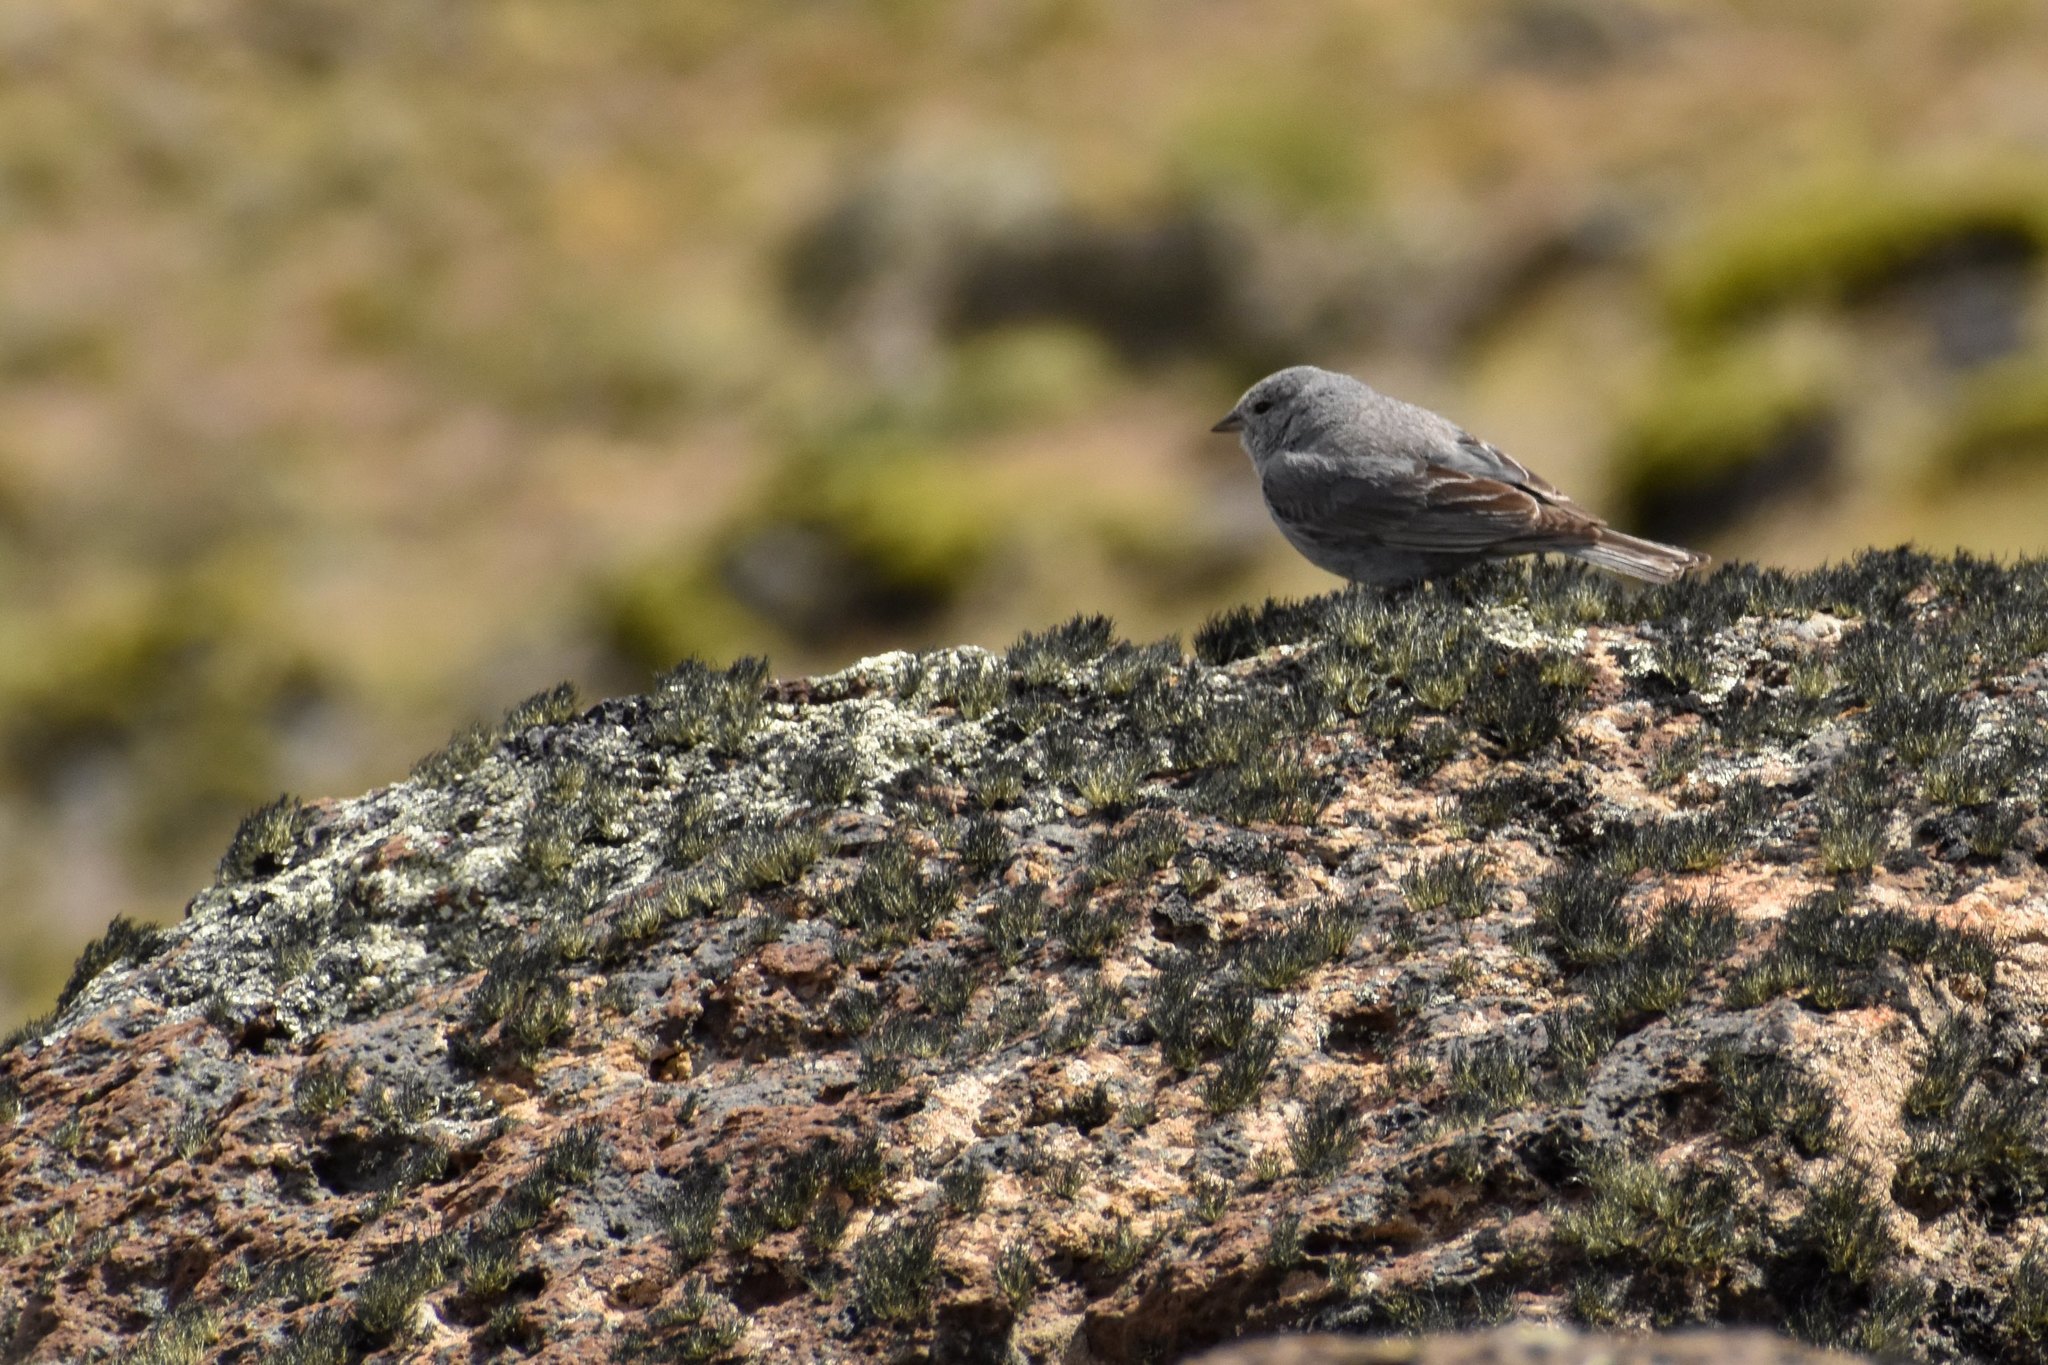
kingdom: Animalia
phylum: Chordata
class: Aves
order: Passeriformes
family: Thraupidae
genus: Geospizopsis
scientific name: Geospizopsis unicolor
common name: Plumbeous sierra-finch
